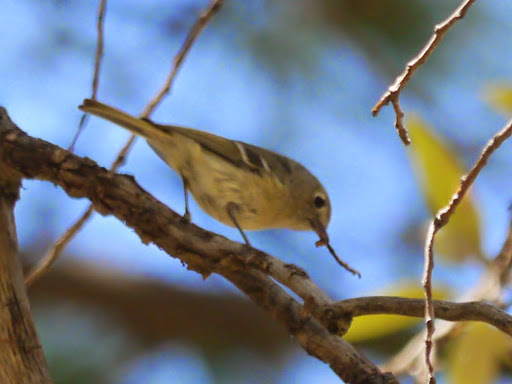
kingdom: Animalia
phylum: Chordata
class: Aves
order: Passeriformes
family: Regulidae
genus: Regulus
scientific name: Regulus calendula
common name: Ruby-crowned kinglet
